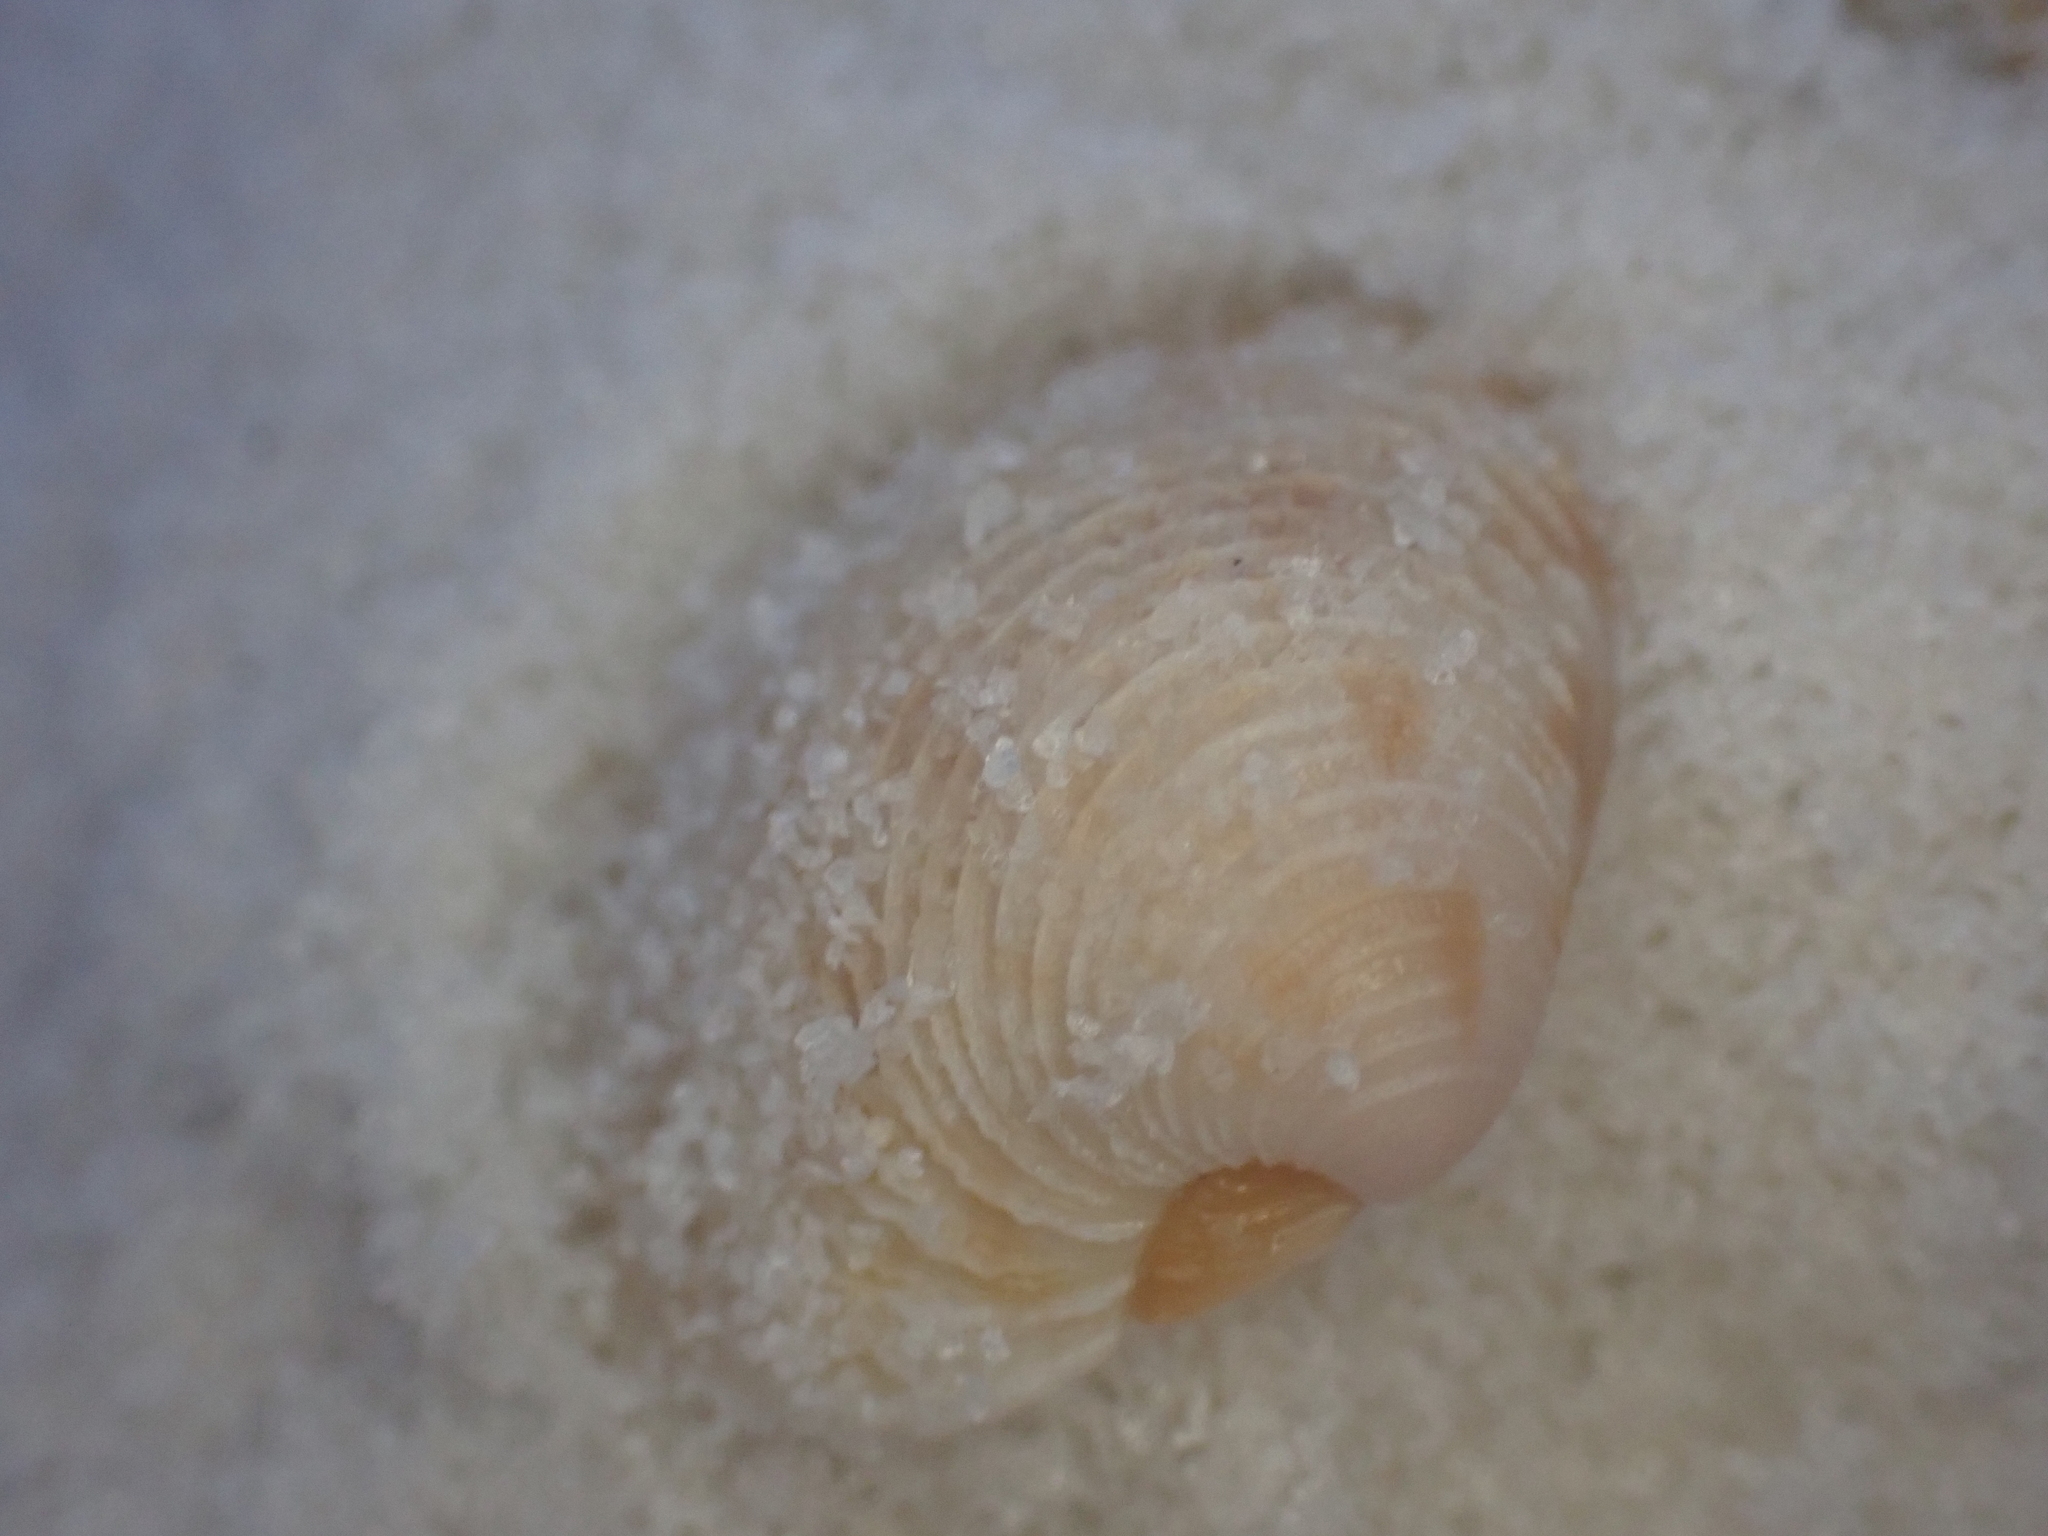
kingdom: Animalia
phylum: Mollusca
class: Bivalvia
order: Venerida
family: Veneridae
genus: Chionopsis
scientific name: Chionopsis intapurpurea
